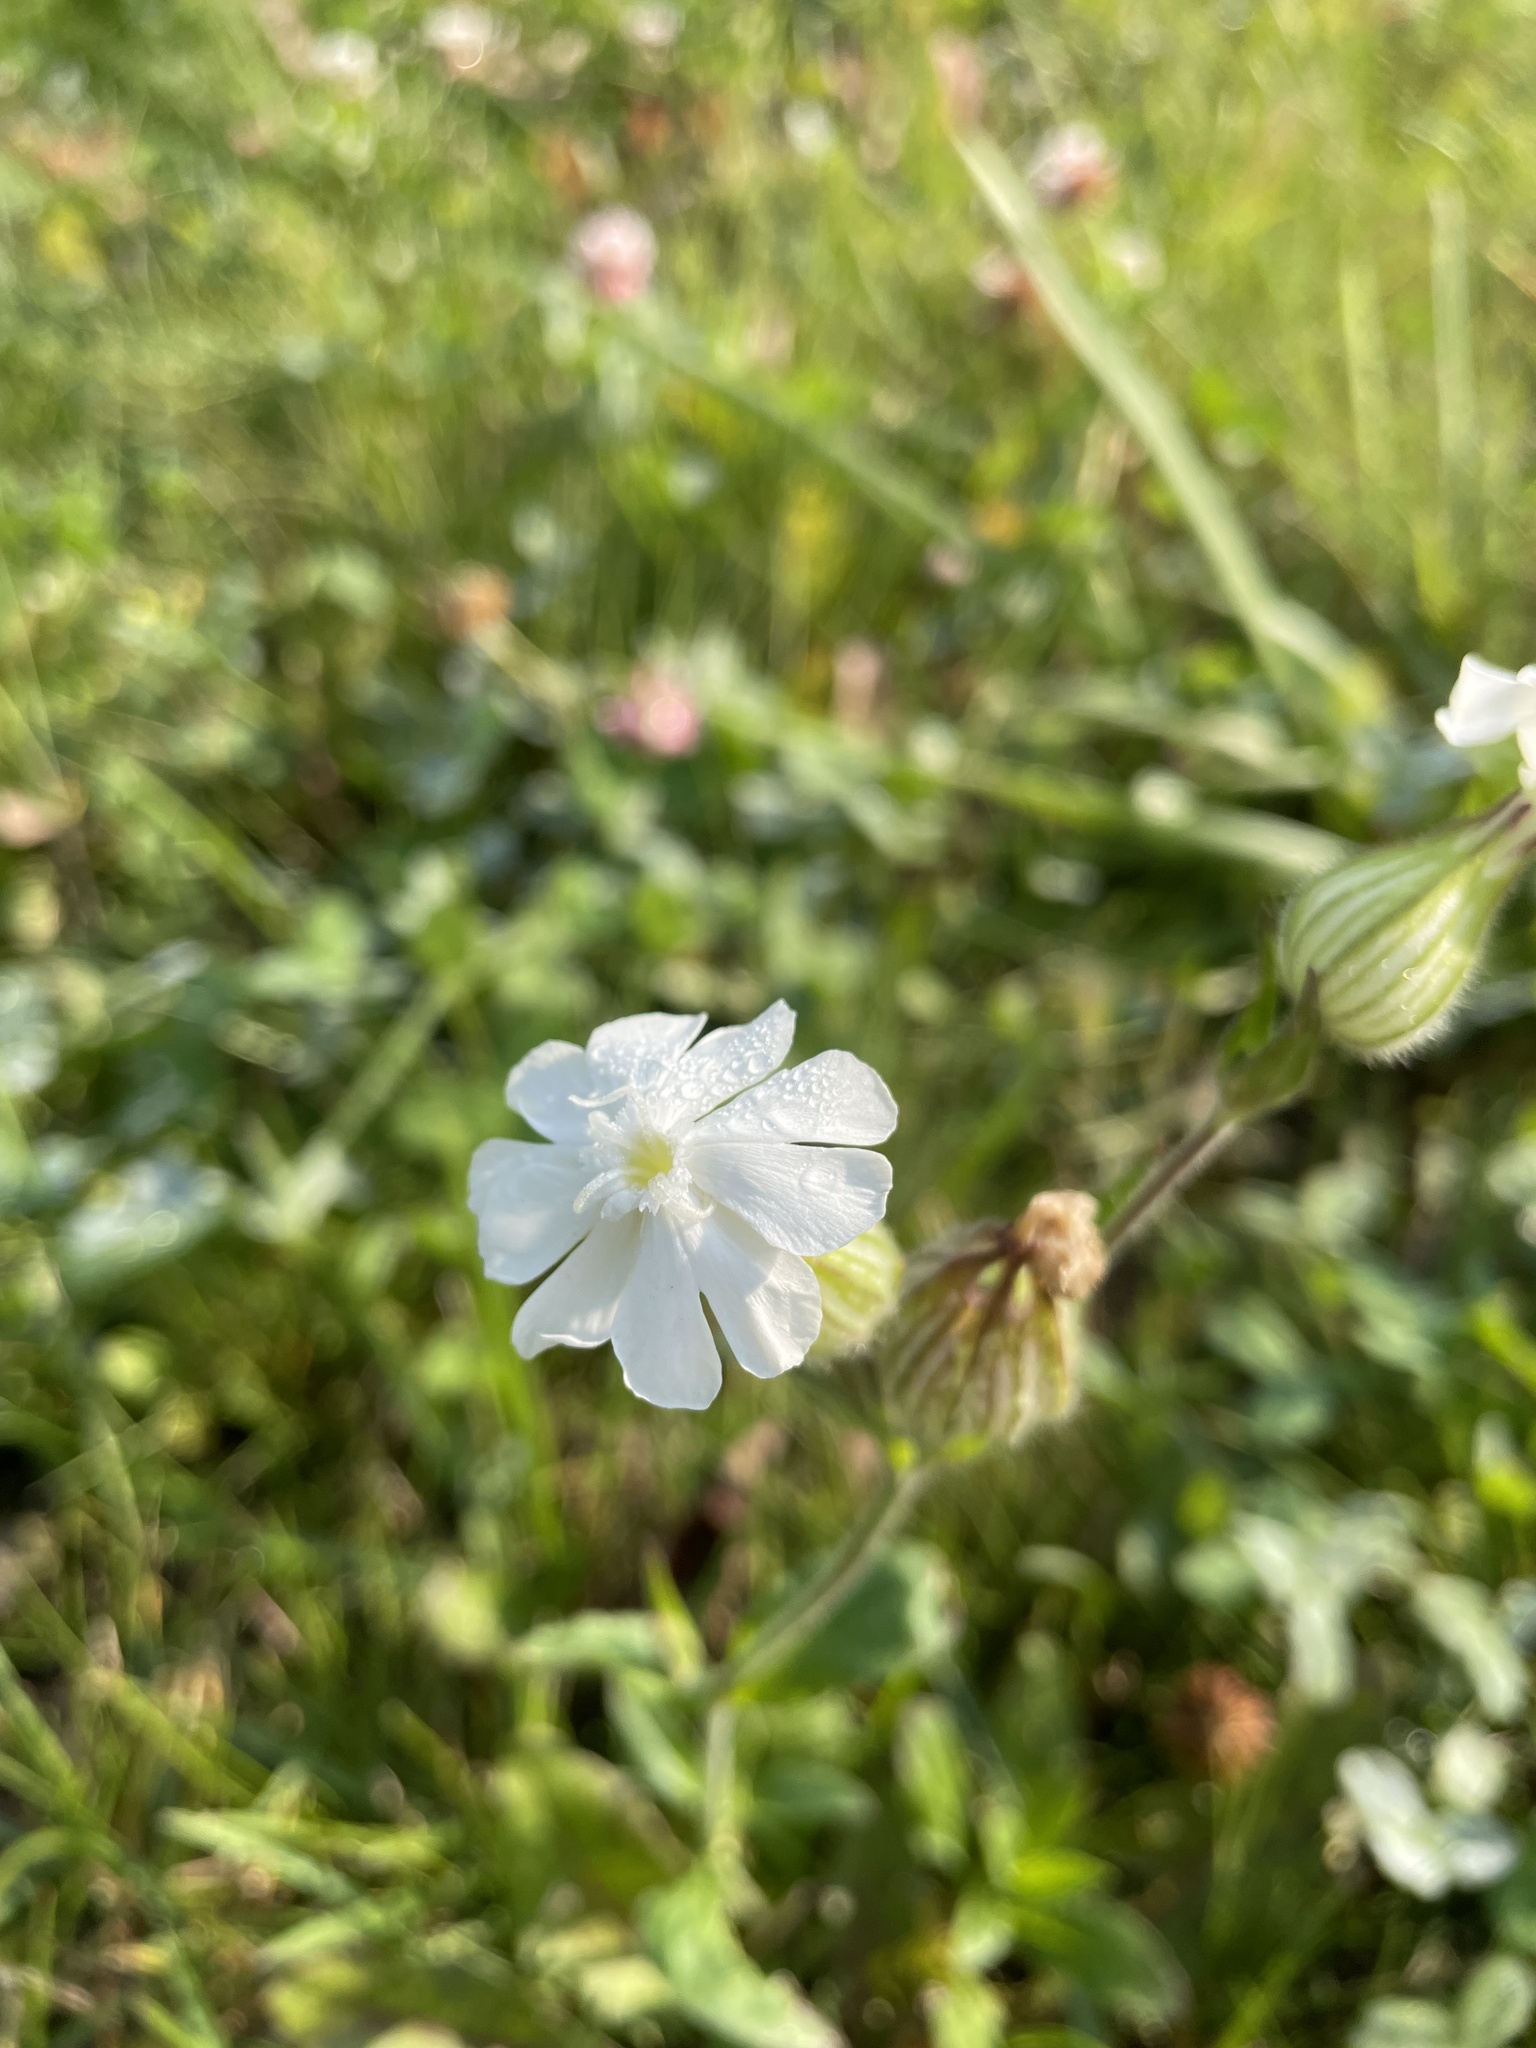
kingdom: Plantae
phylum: Tracheophyta
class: Magnoliopsida
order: Caryophyllales
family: Caryophyllaceae
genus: Silene
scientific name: Silene latifolia
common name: White campion
